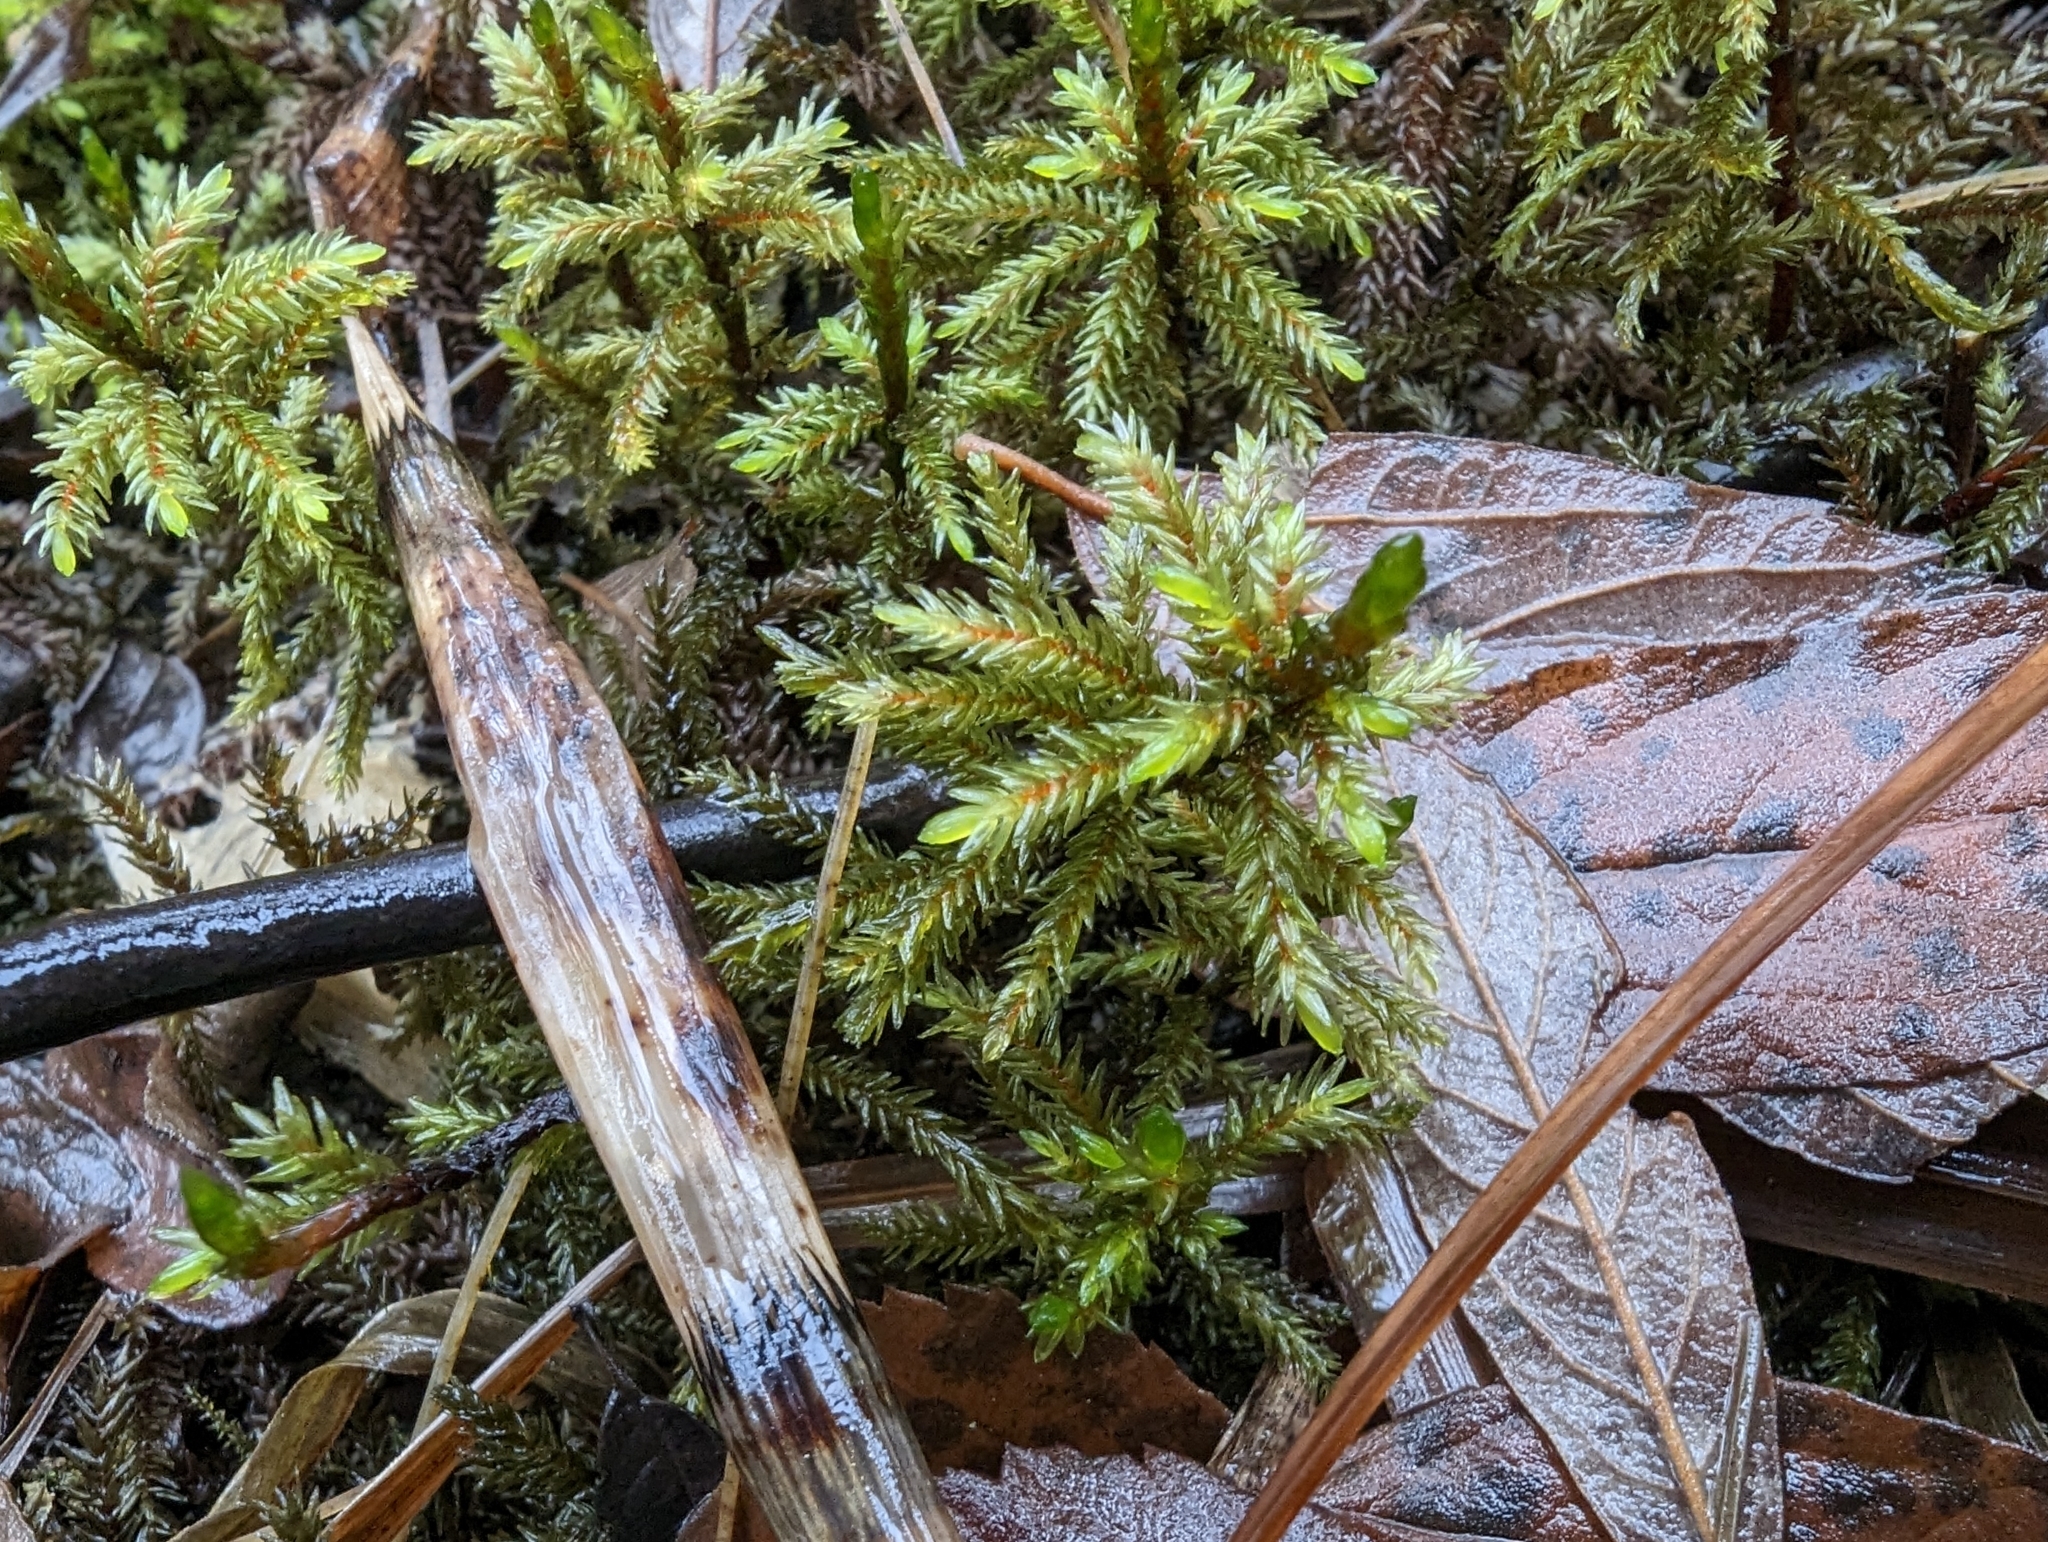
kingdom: Plantae
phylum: Bryophyta
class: Bryopsida
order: Hypnales
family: Climaciaceae
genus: Climacium
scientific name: Climacium dendroides
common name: Northern tree moss
